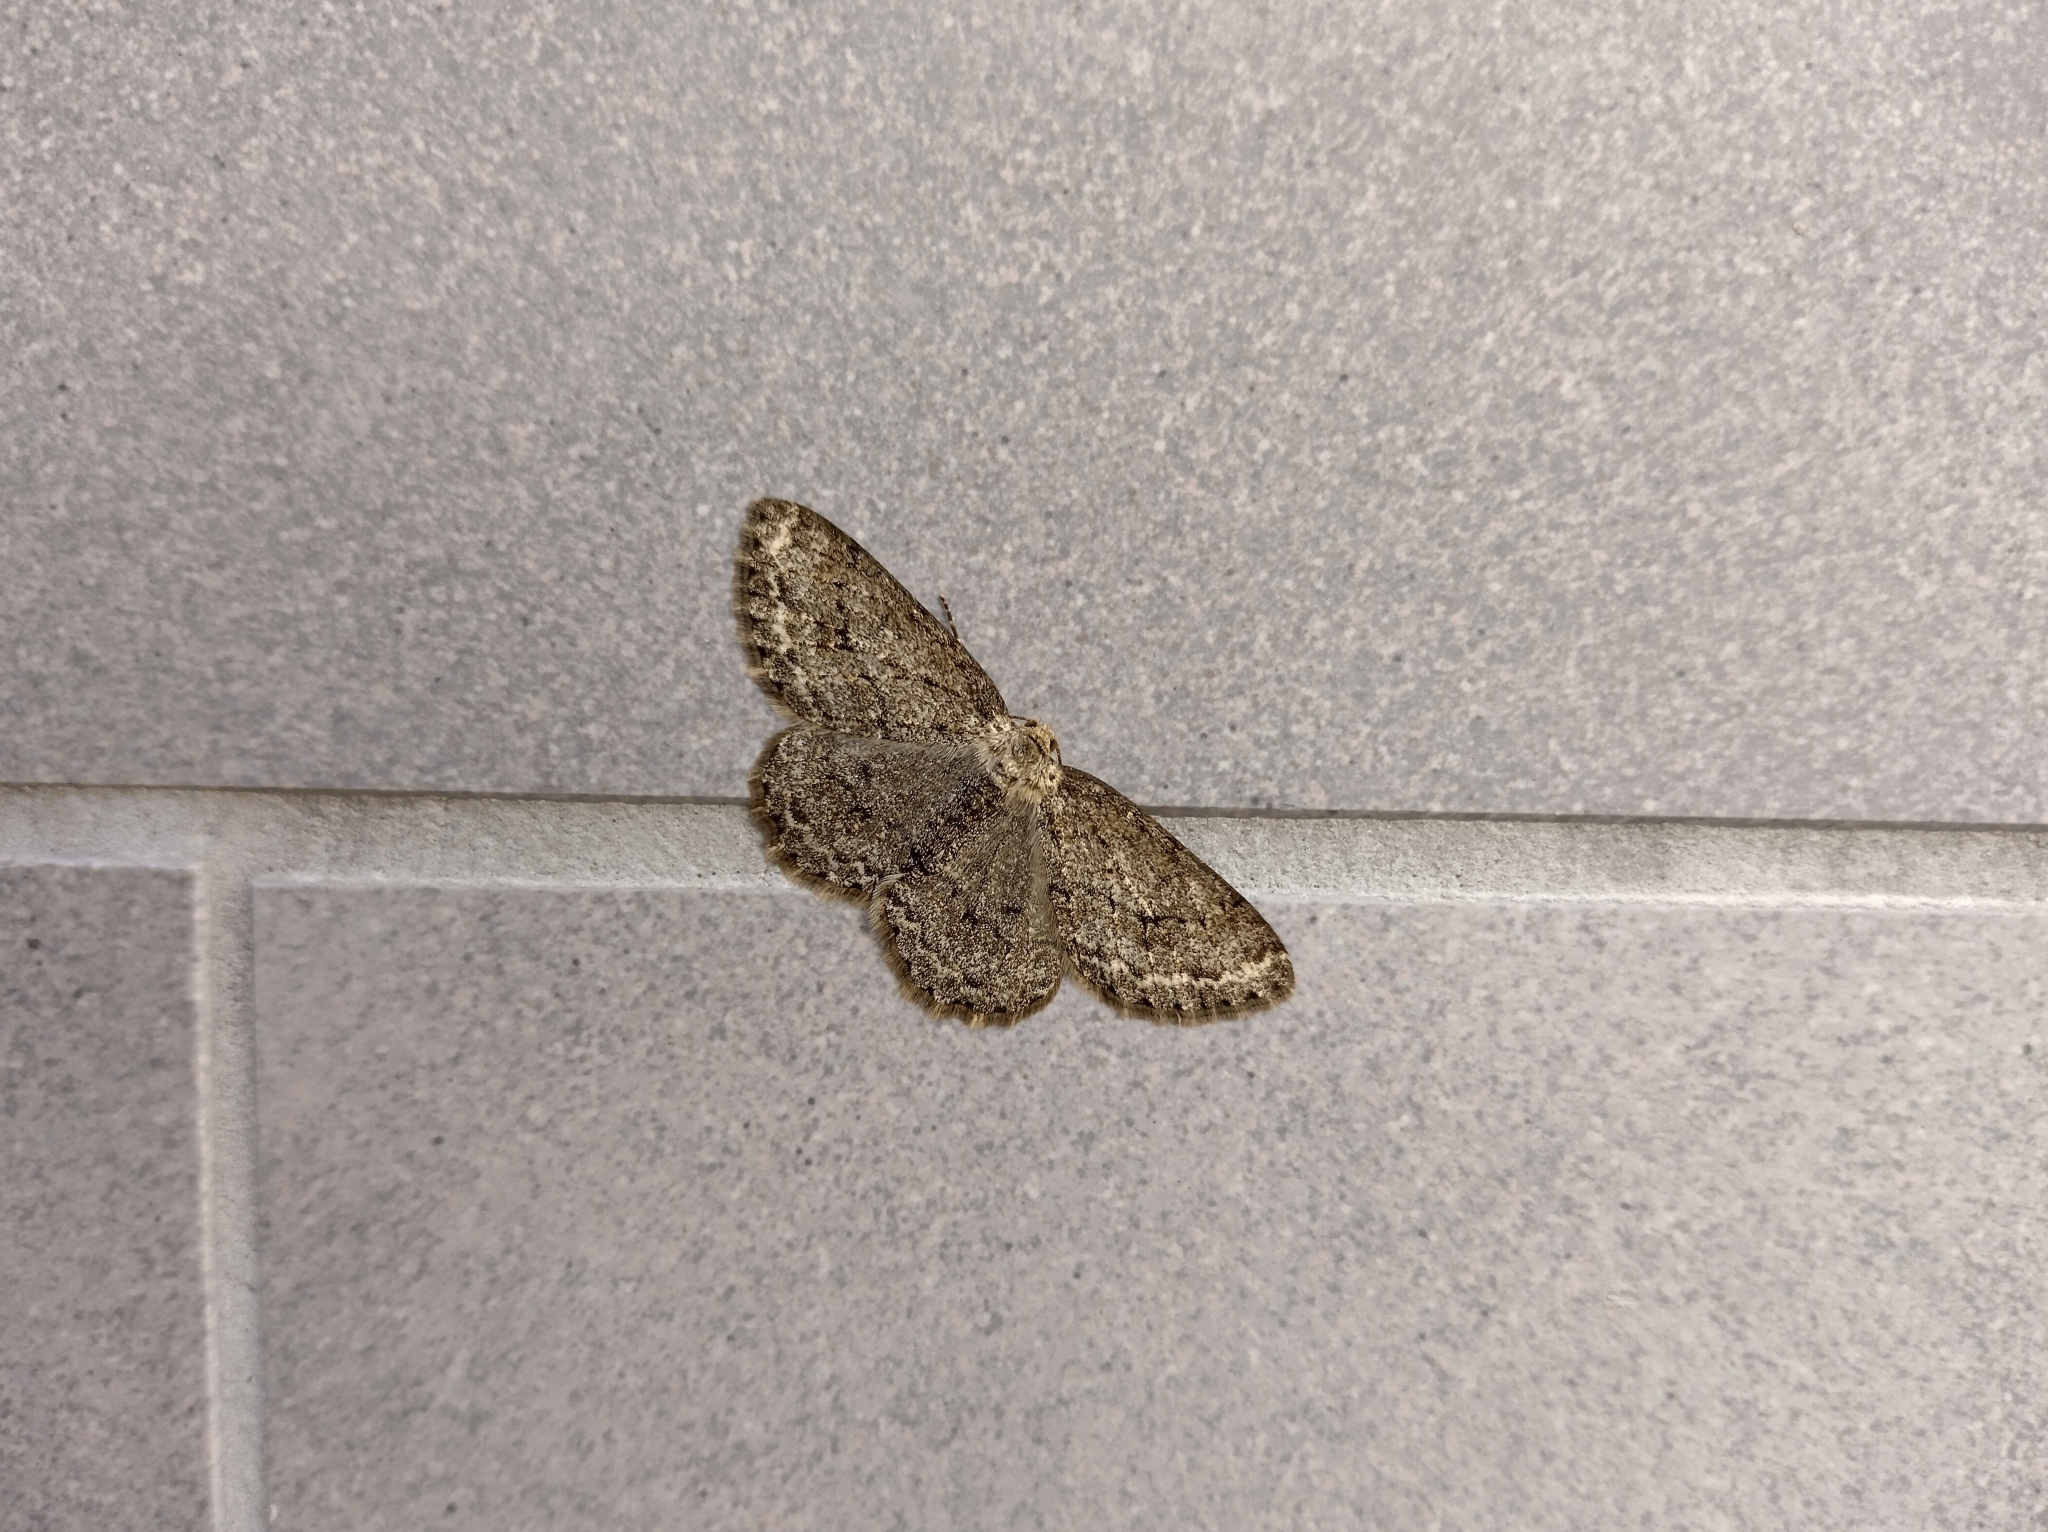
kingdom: Animalia
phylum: Arthropoda
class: Insecta
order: Lepidoptera
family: Geometridae
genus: Ectropis
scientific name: Ectropis crepuscularia
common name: Engrailed
